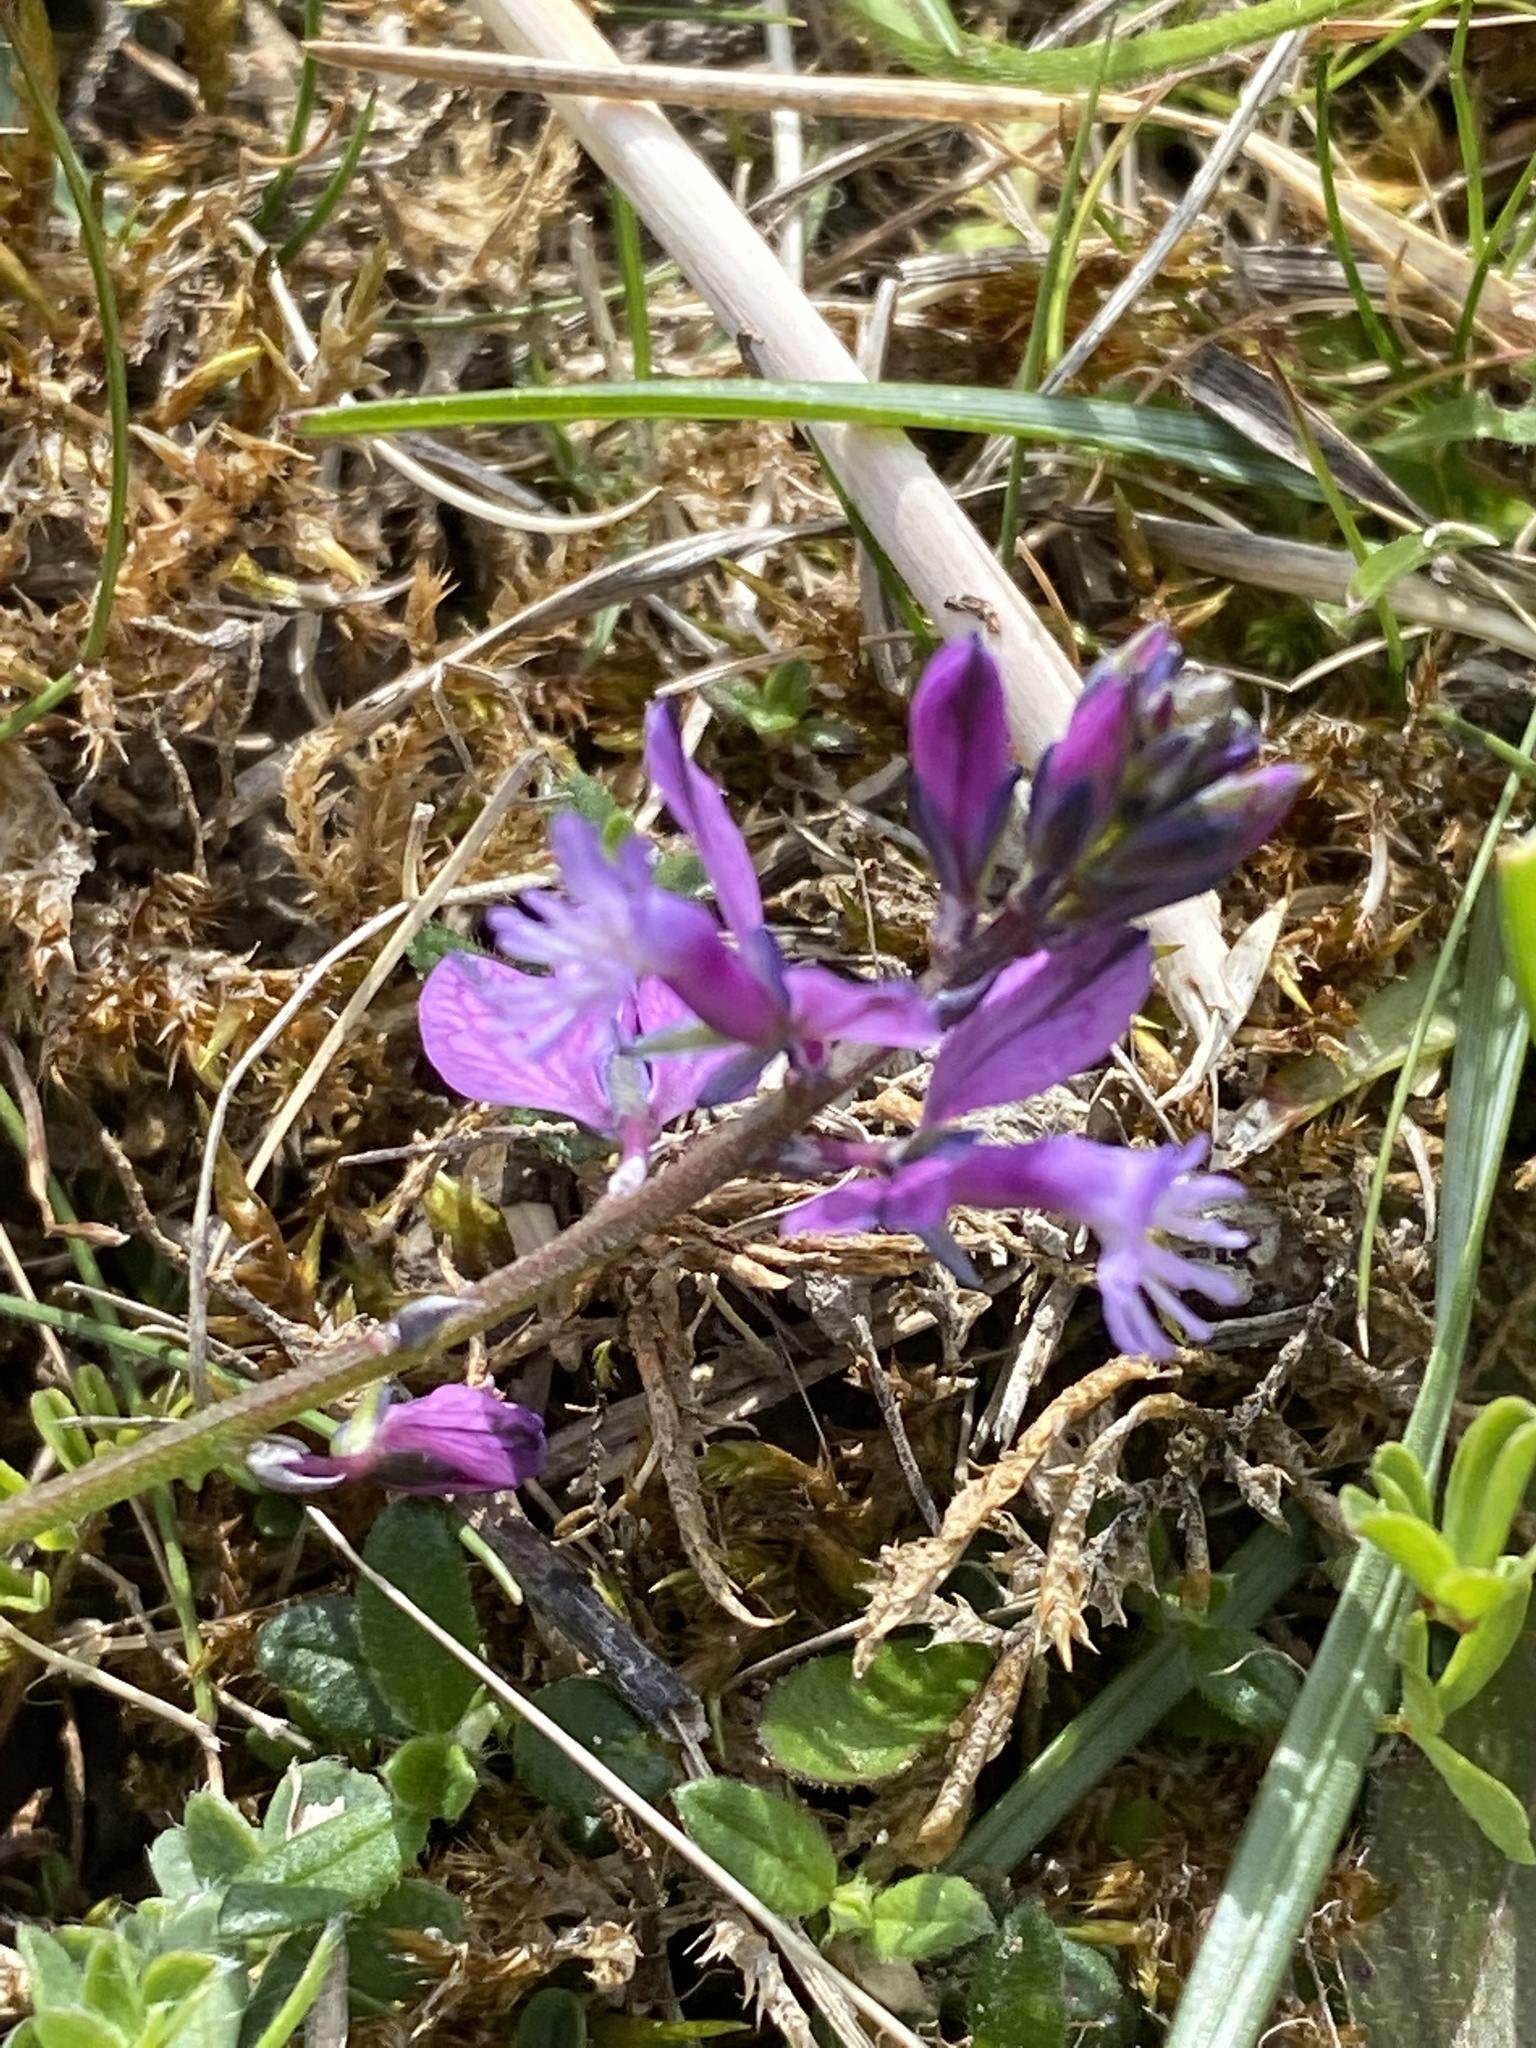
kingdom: Plantae
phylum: Tracheophyta
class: Magnoliopsida
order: Fabales
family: Polygalaceae
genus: Polygala
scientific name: Polygala vulgaris
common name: Common milkwort
